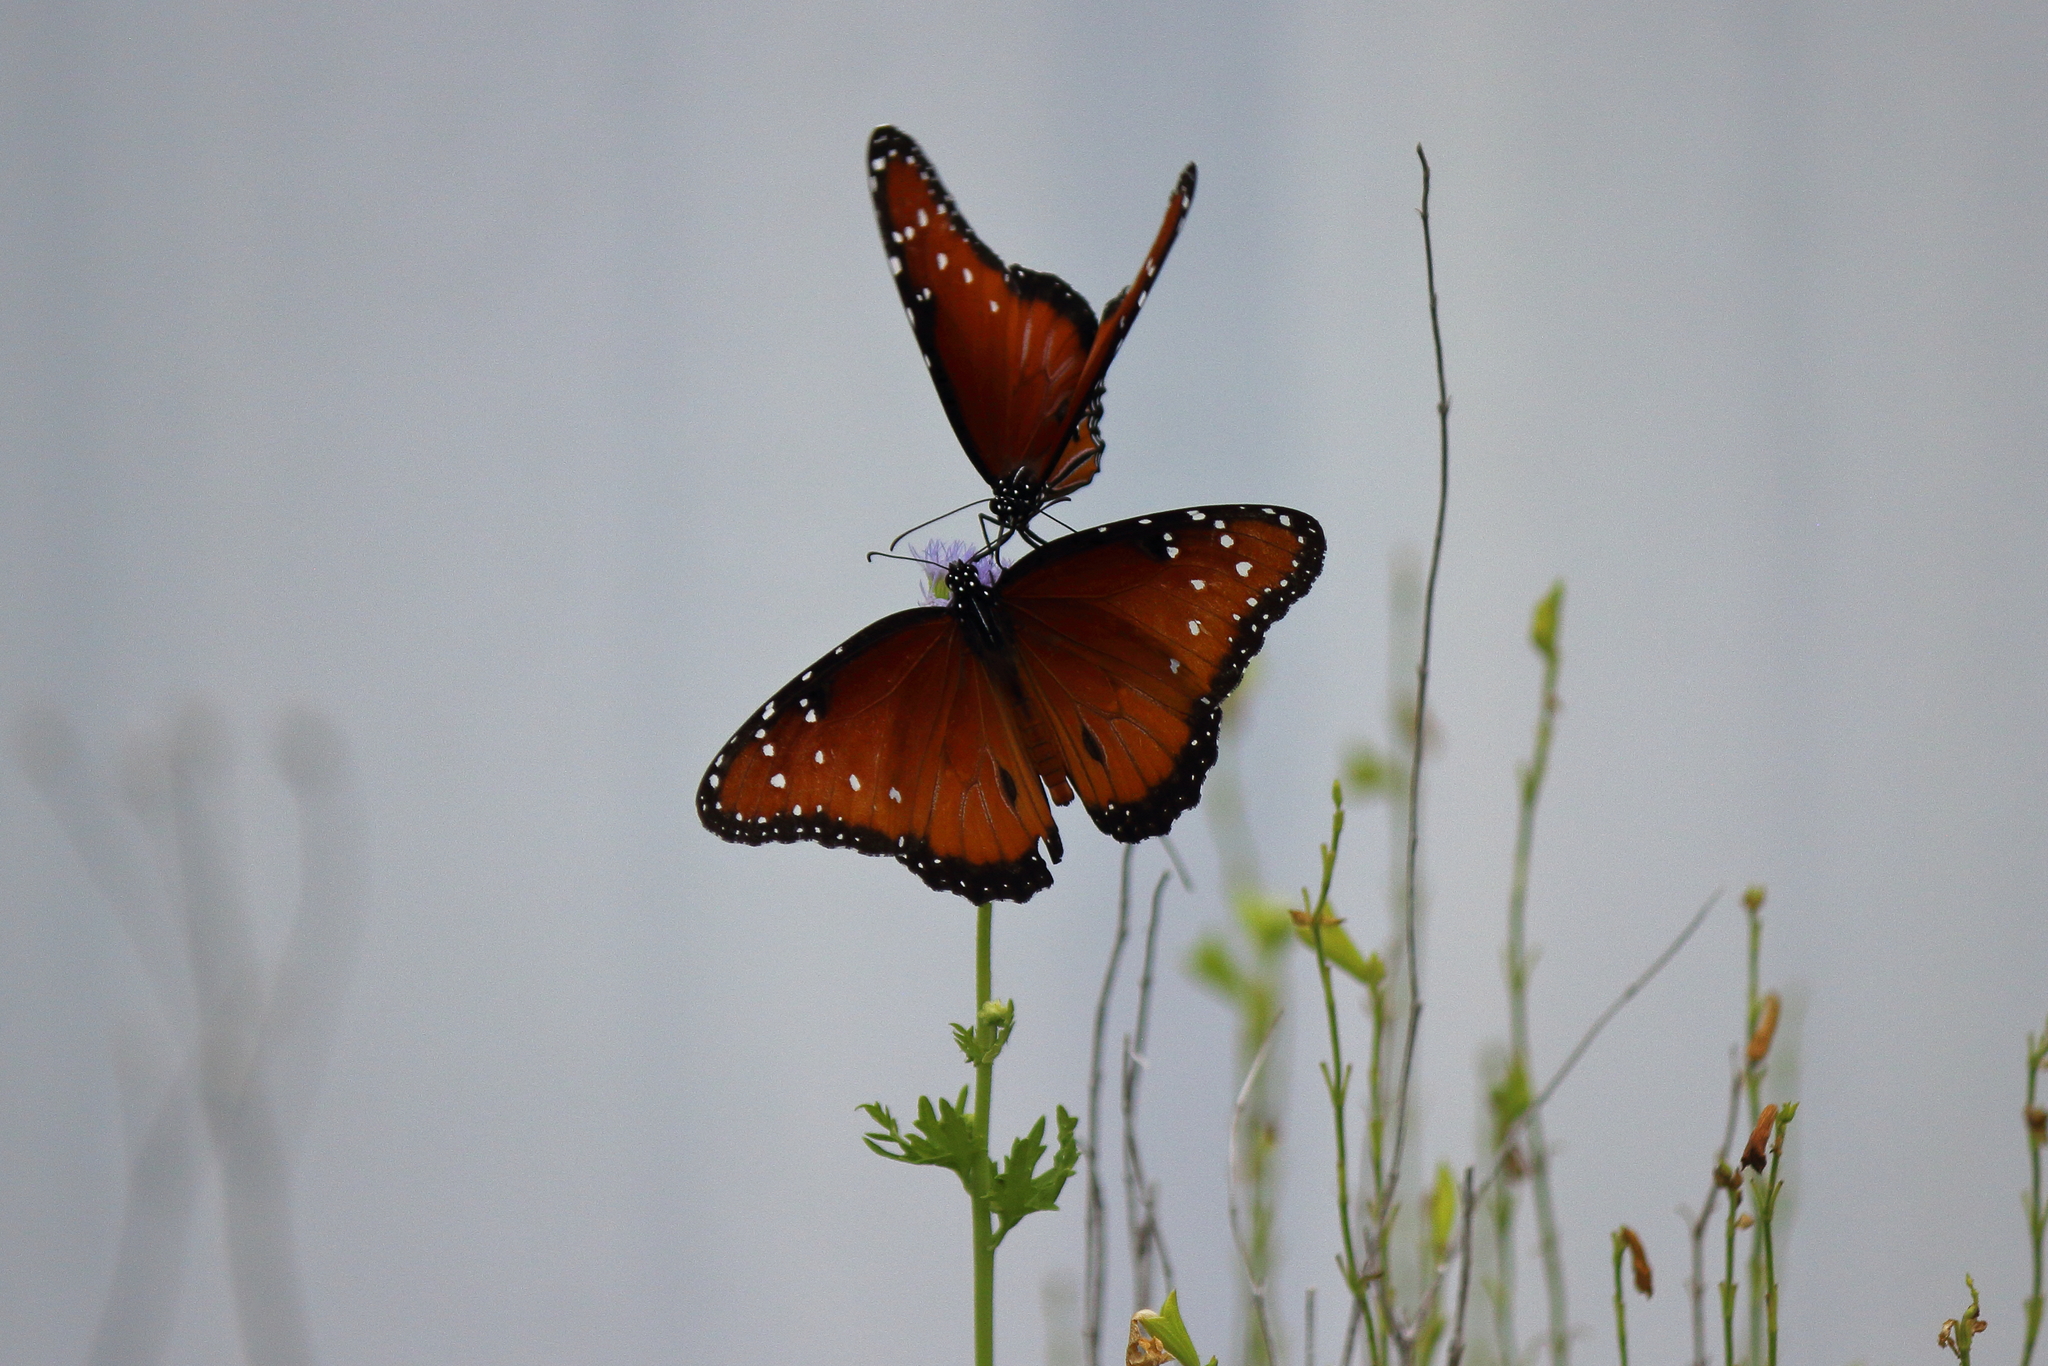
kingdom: Animalia
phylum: Arthropoda
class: Insecta
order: Lepidoptera
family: Nymphalidae
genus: Danaus
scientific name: Danaus gilippus
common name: Queen
